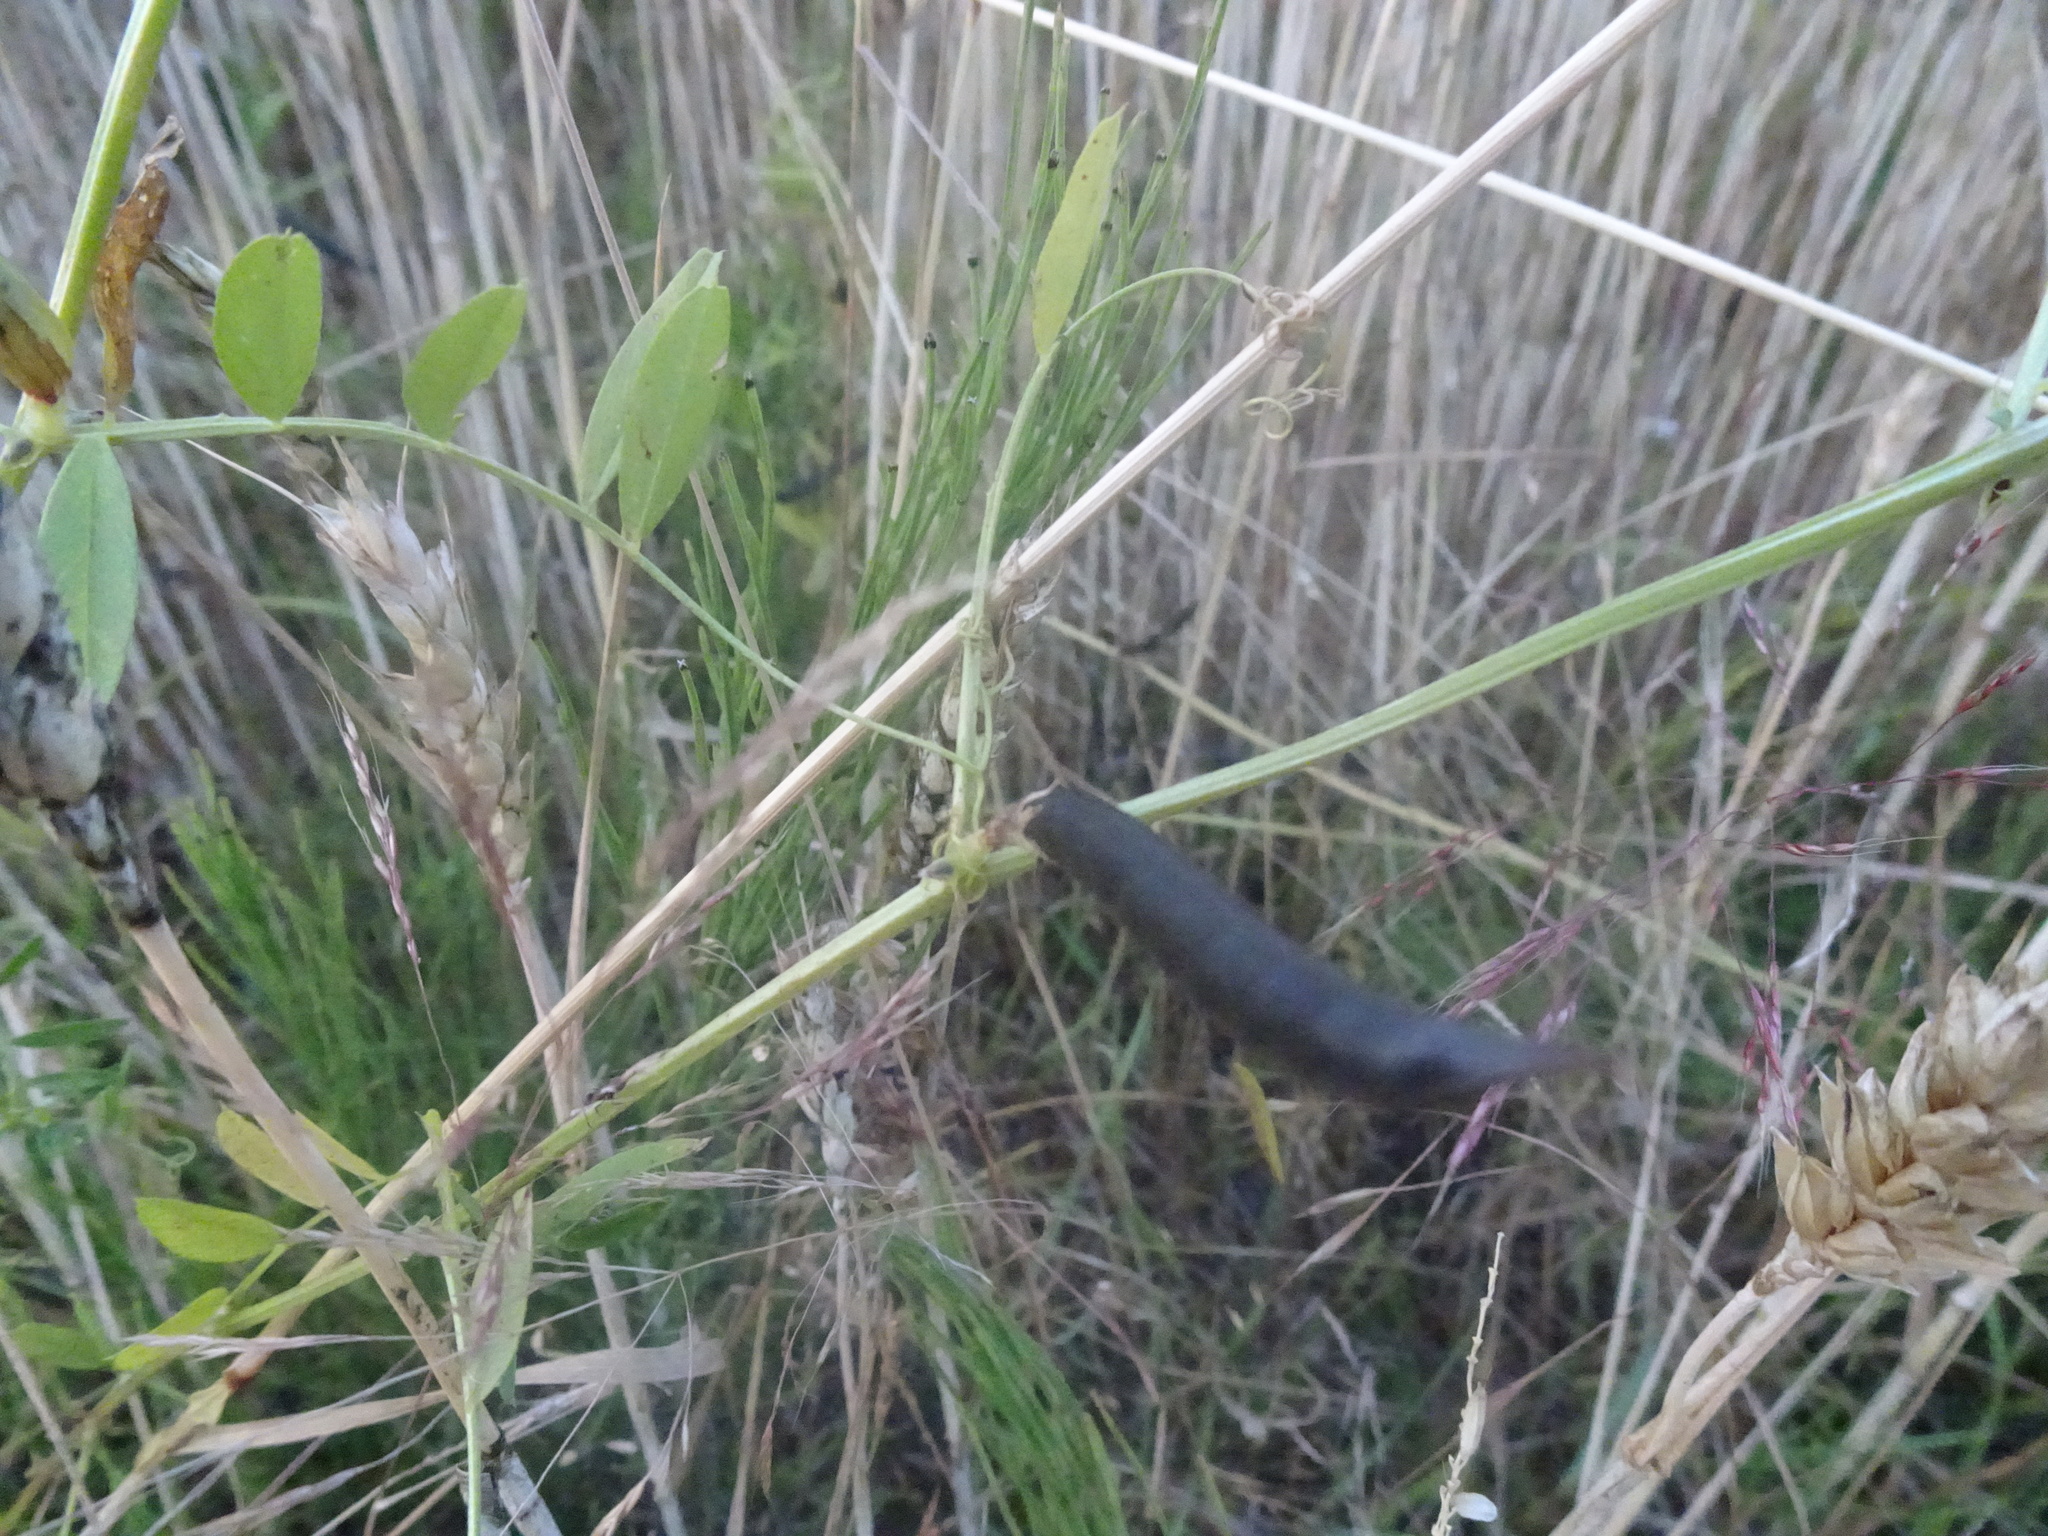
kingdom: Plantae
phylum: Tracheophyta
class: Magnoliopsida
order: Fabales
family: Fabaceae
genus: Lathyrus
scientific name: Lathyrus linifolius
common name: Bitter-vetch
